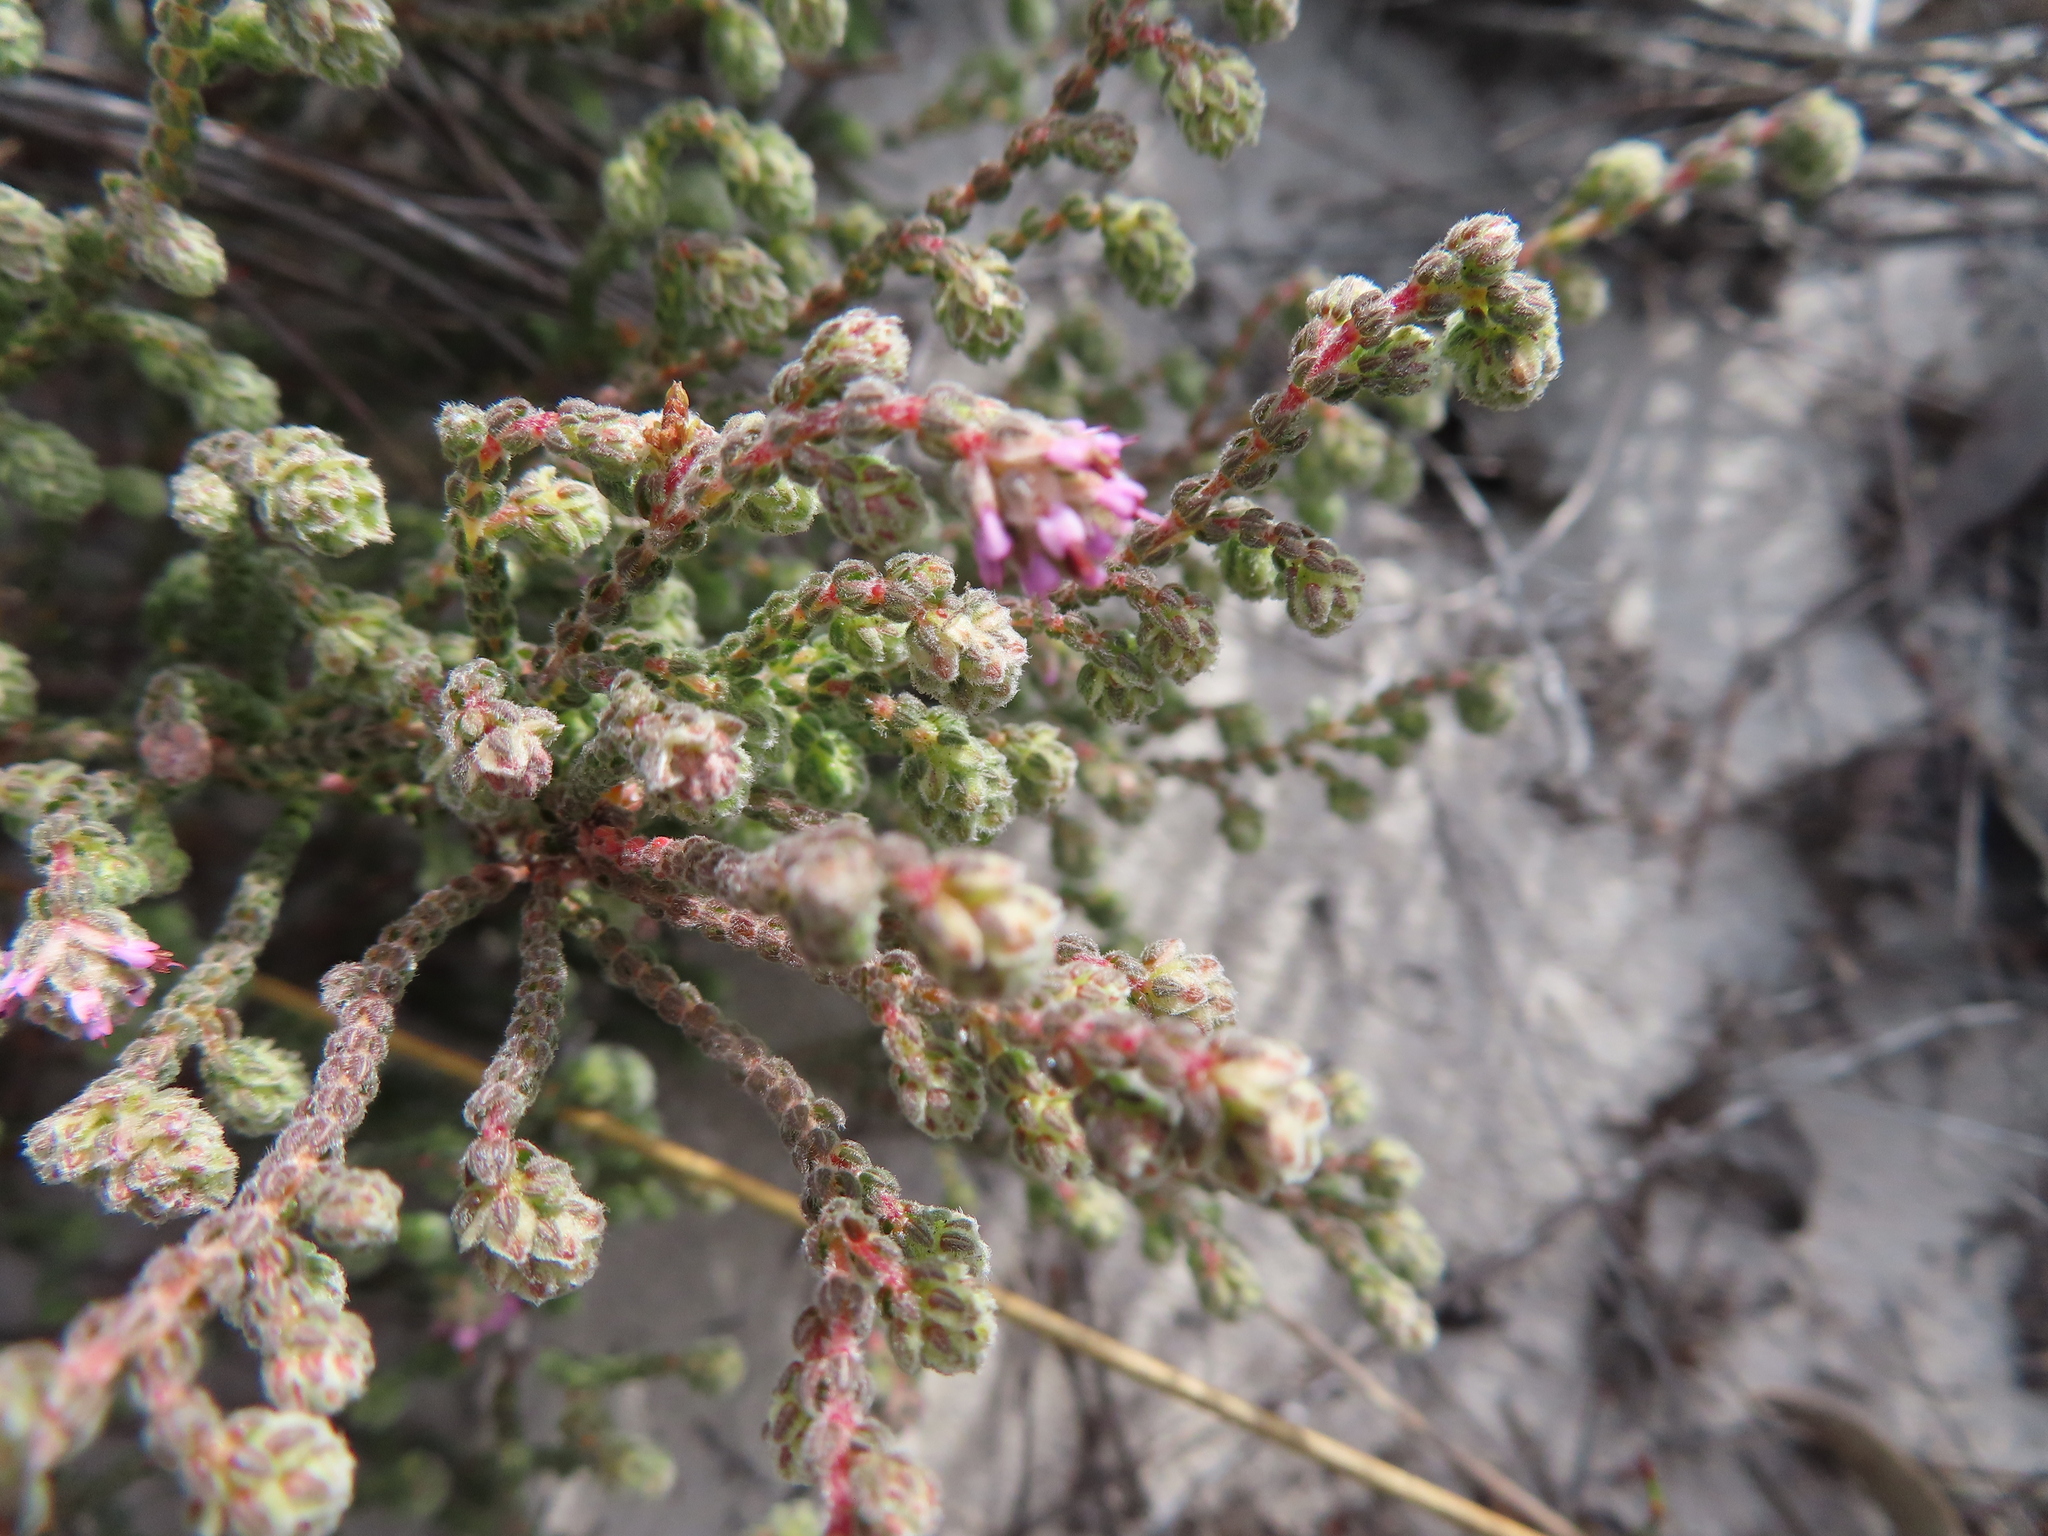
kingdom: Plantae
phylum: Tracheophyta
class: Magnoliopsida
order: Ericales
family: Ericaceae
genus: Erica
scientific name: Erica globiceps
